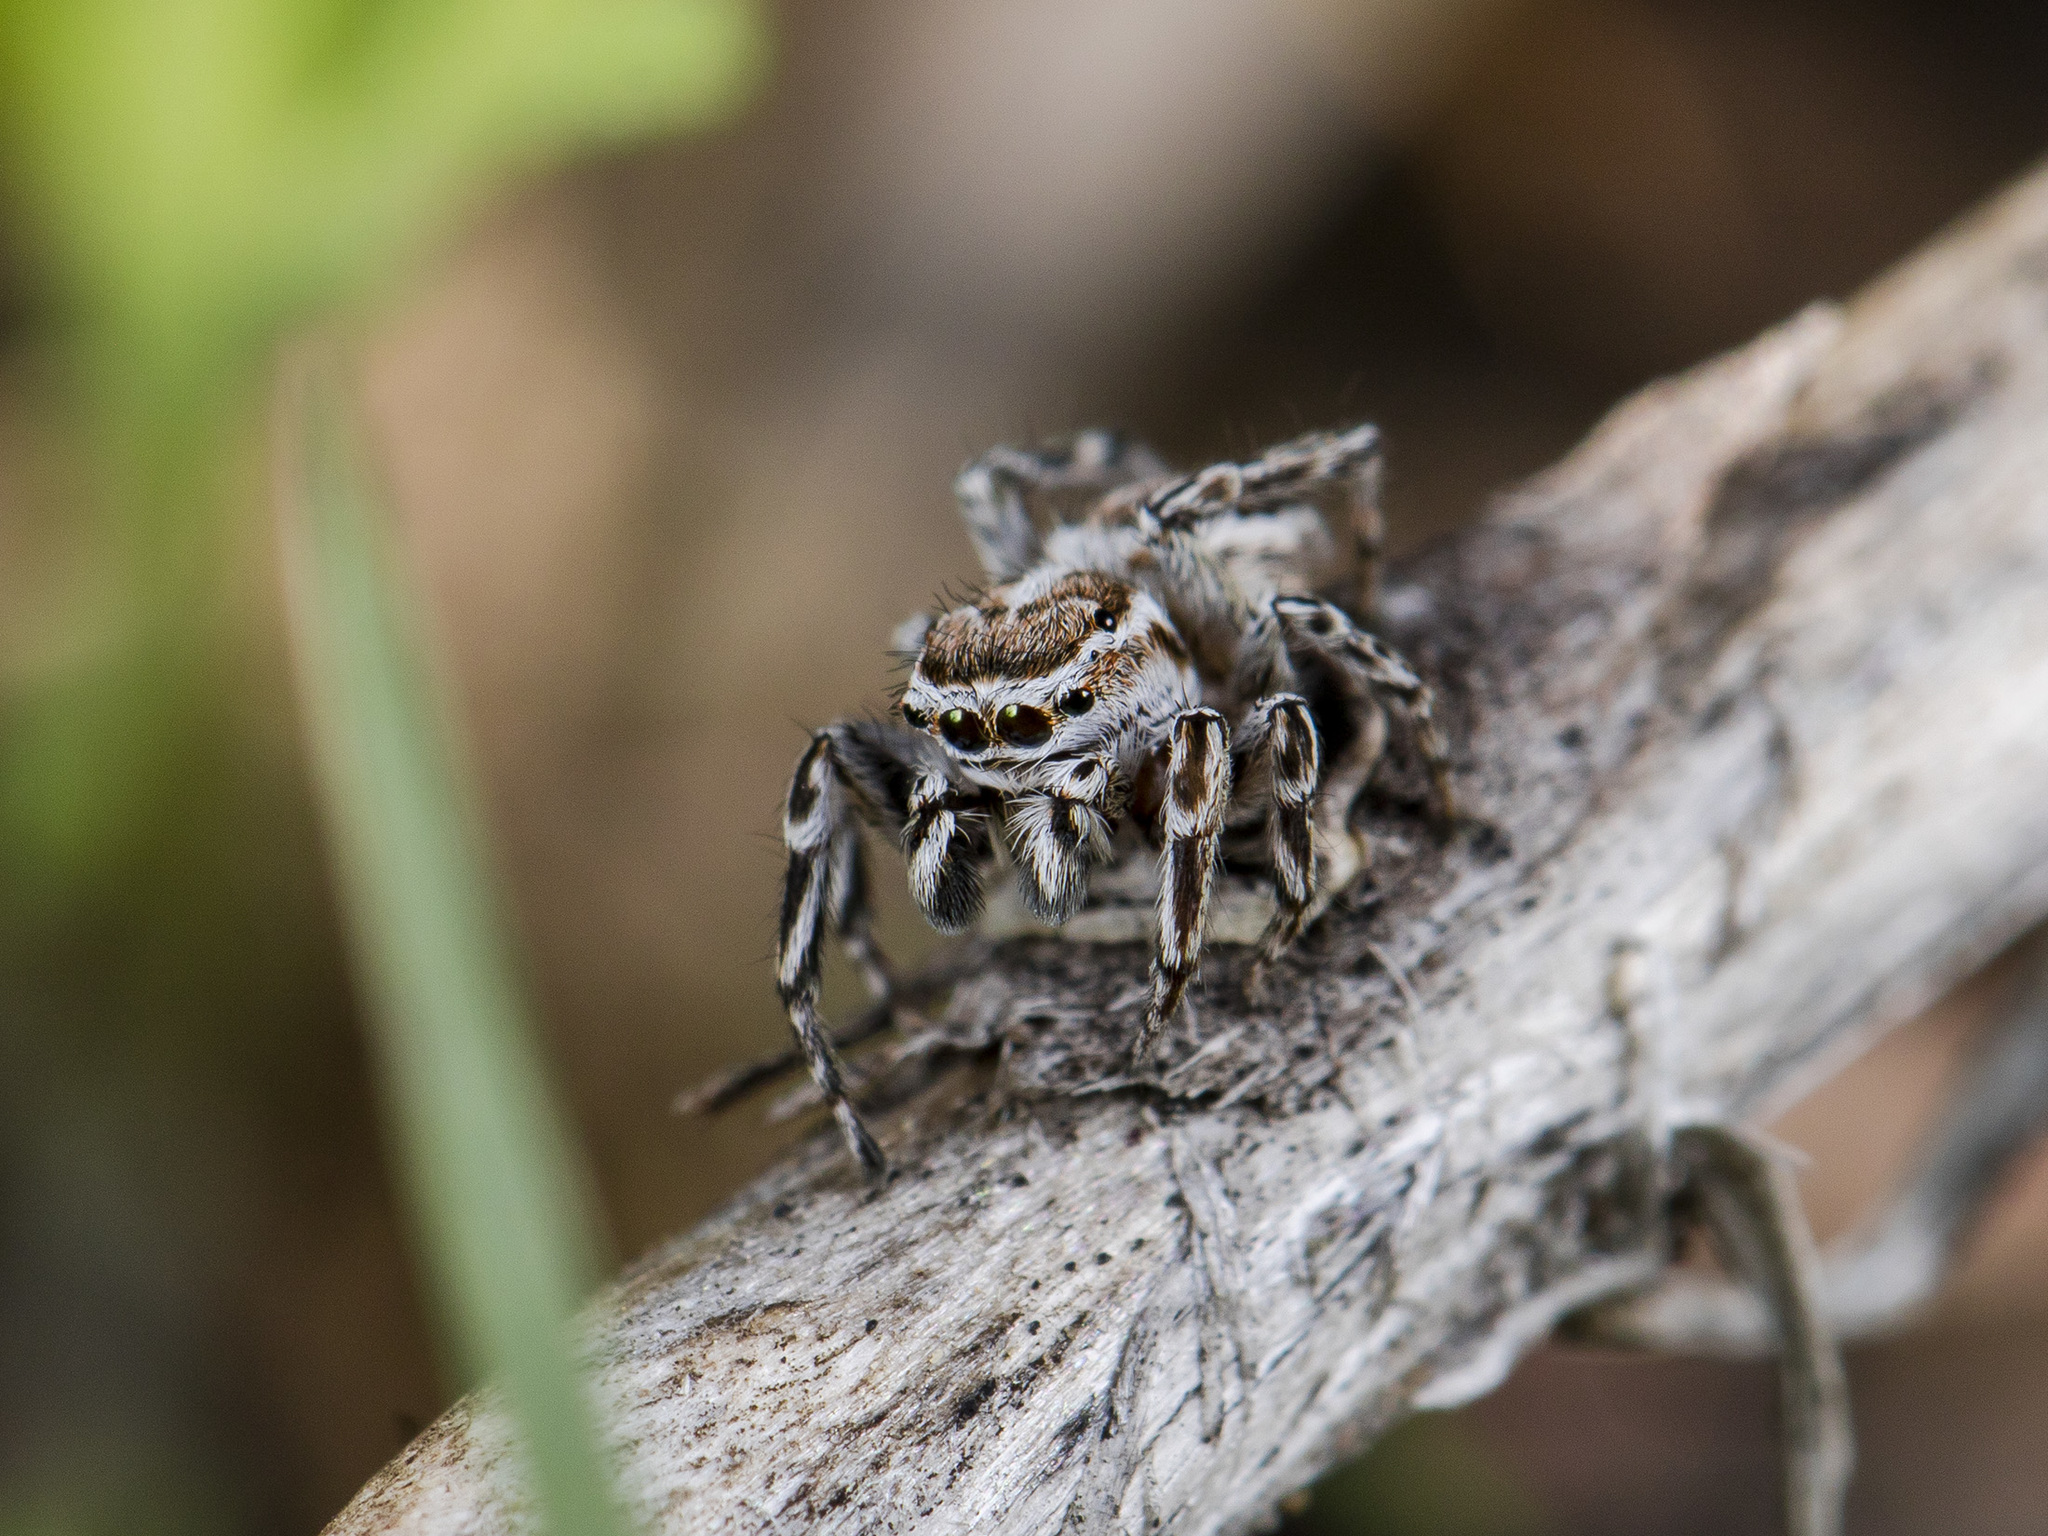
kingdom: Animalia
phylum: Arthropoda
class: Arachnida
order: Araneae
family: Salticidae
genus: Attulus
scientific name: Attulus nenilini
